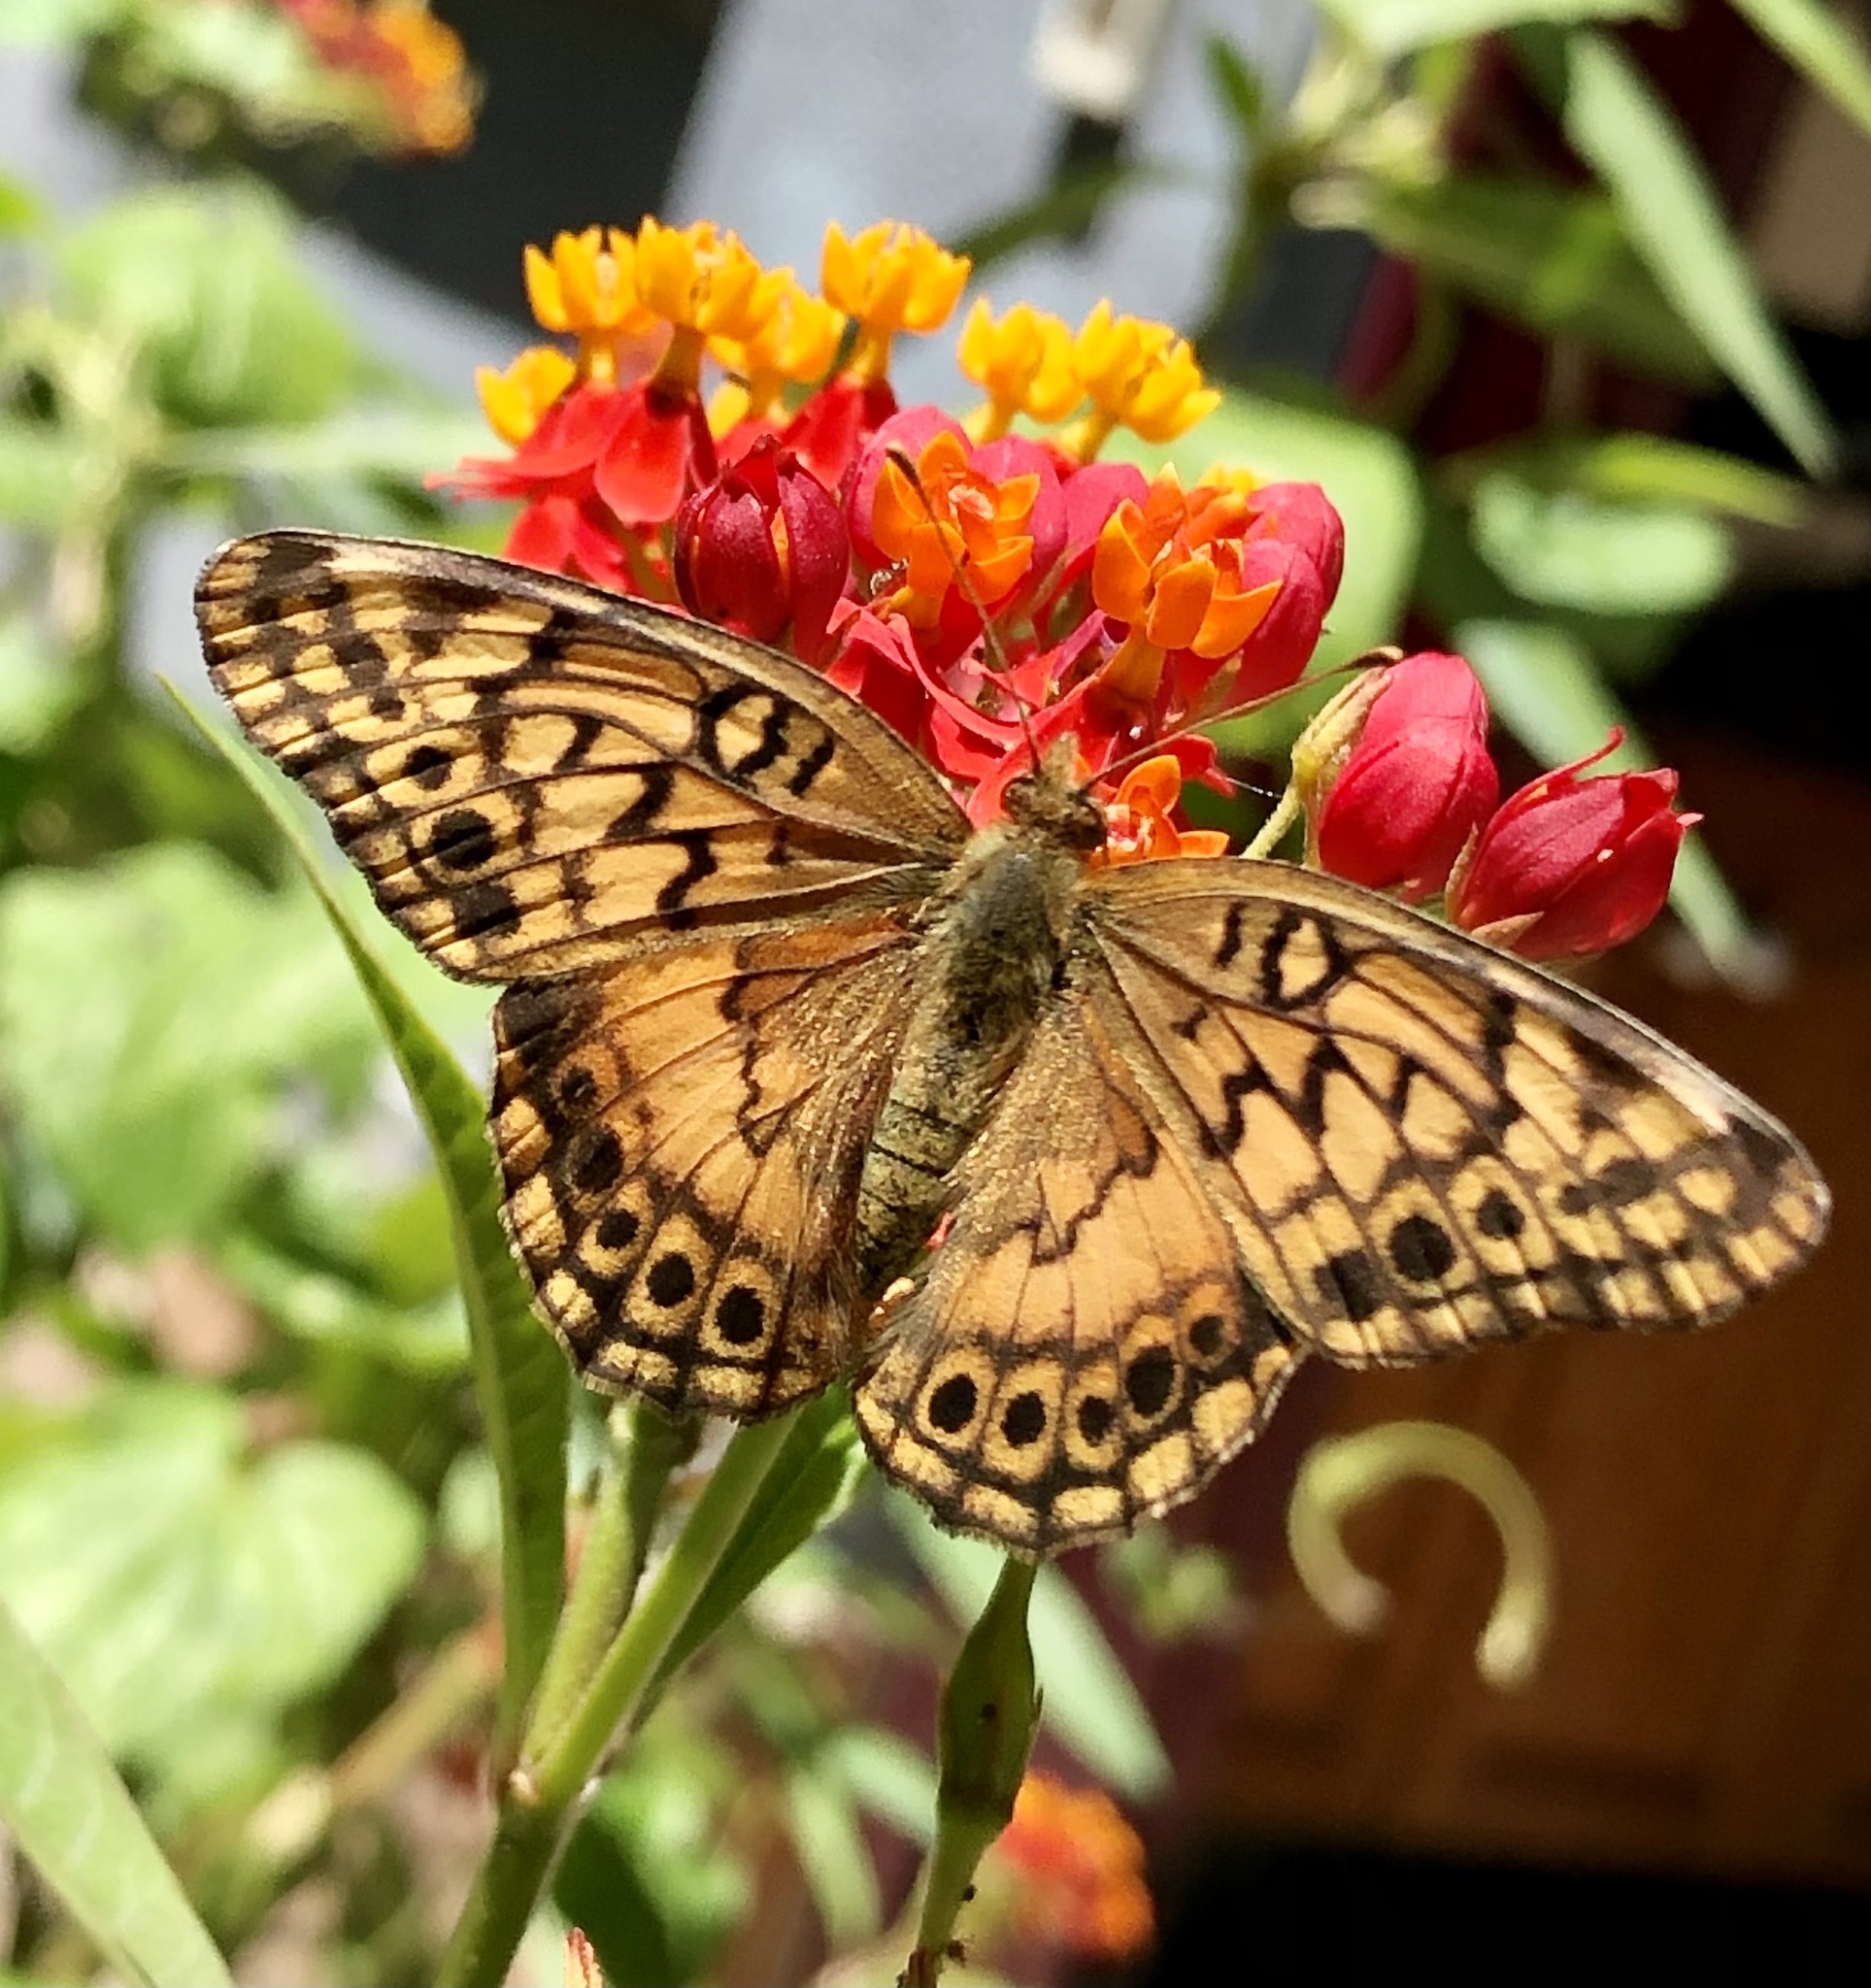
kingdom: Animalia
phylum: Arthropoda
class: Insecta
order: Lepidoptera
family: Nymphalidae
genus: Euptoieta
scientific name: Euptoieta hortensia
